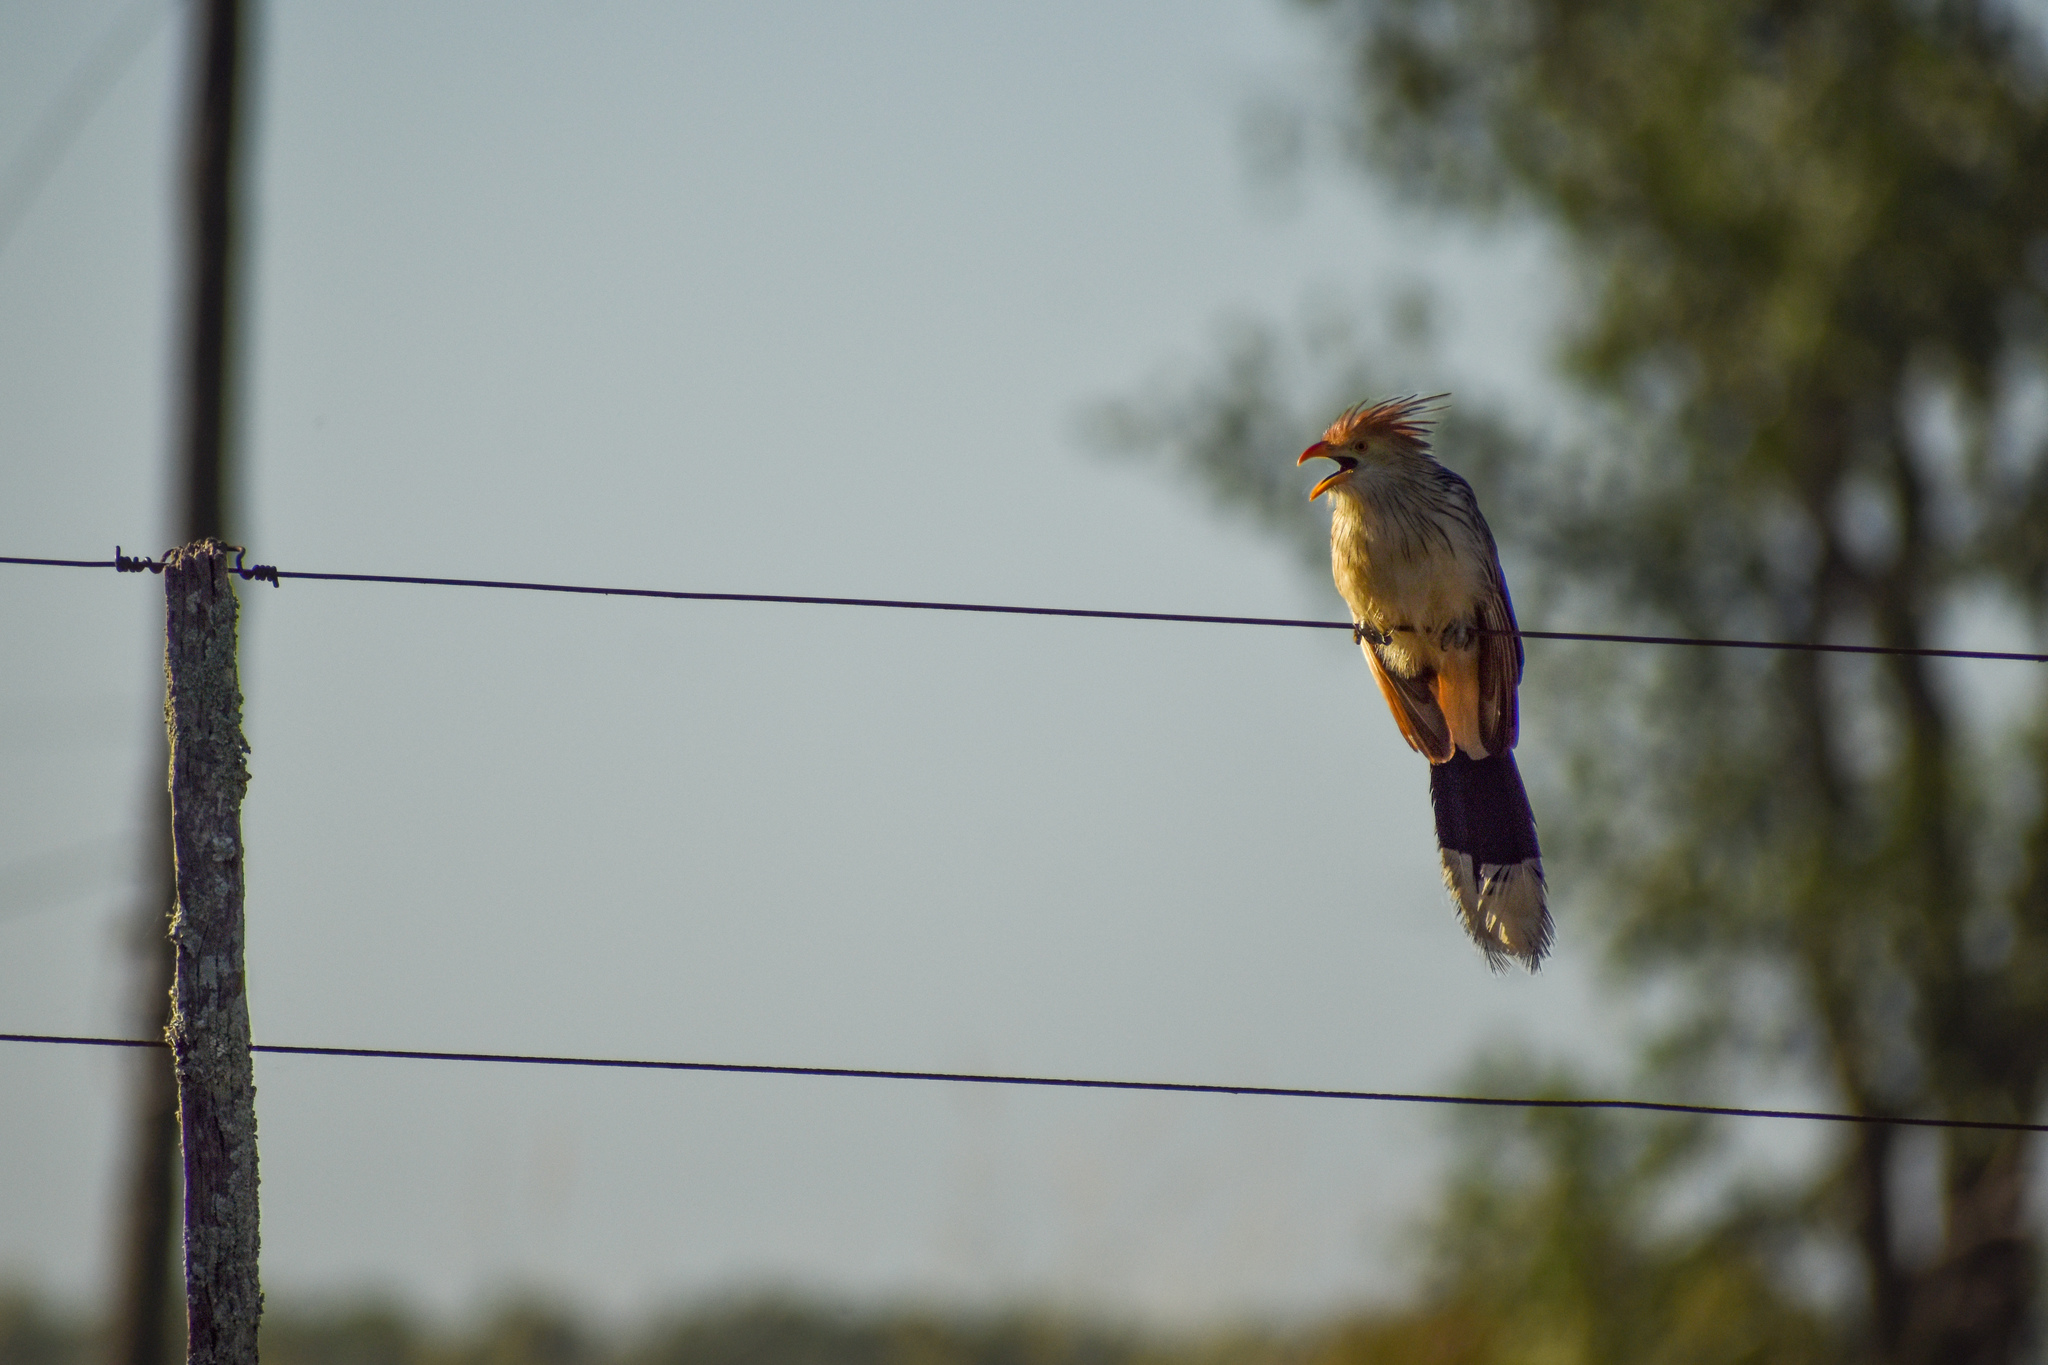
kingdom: Animalia
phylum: Chordata
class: Aves
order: Cuculiformes
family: Cuculidae
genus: Guira
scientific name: Guira guira
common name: Guira cuckoo
